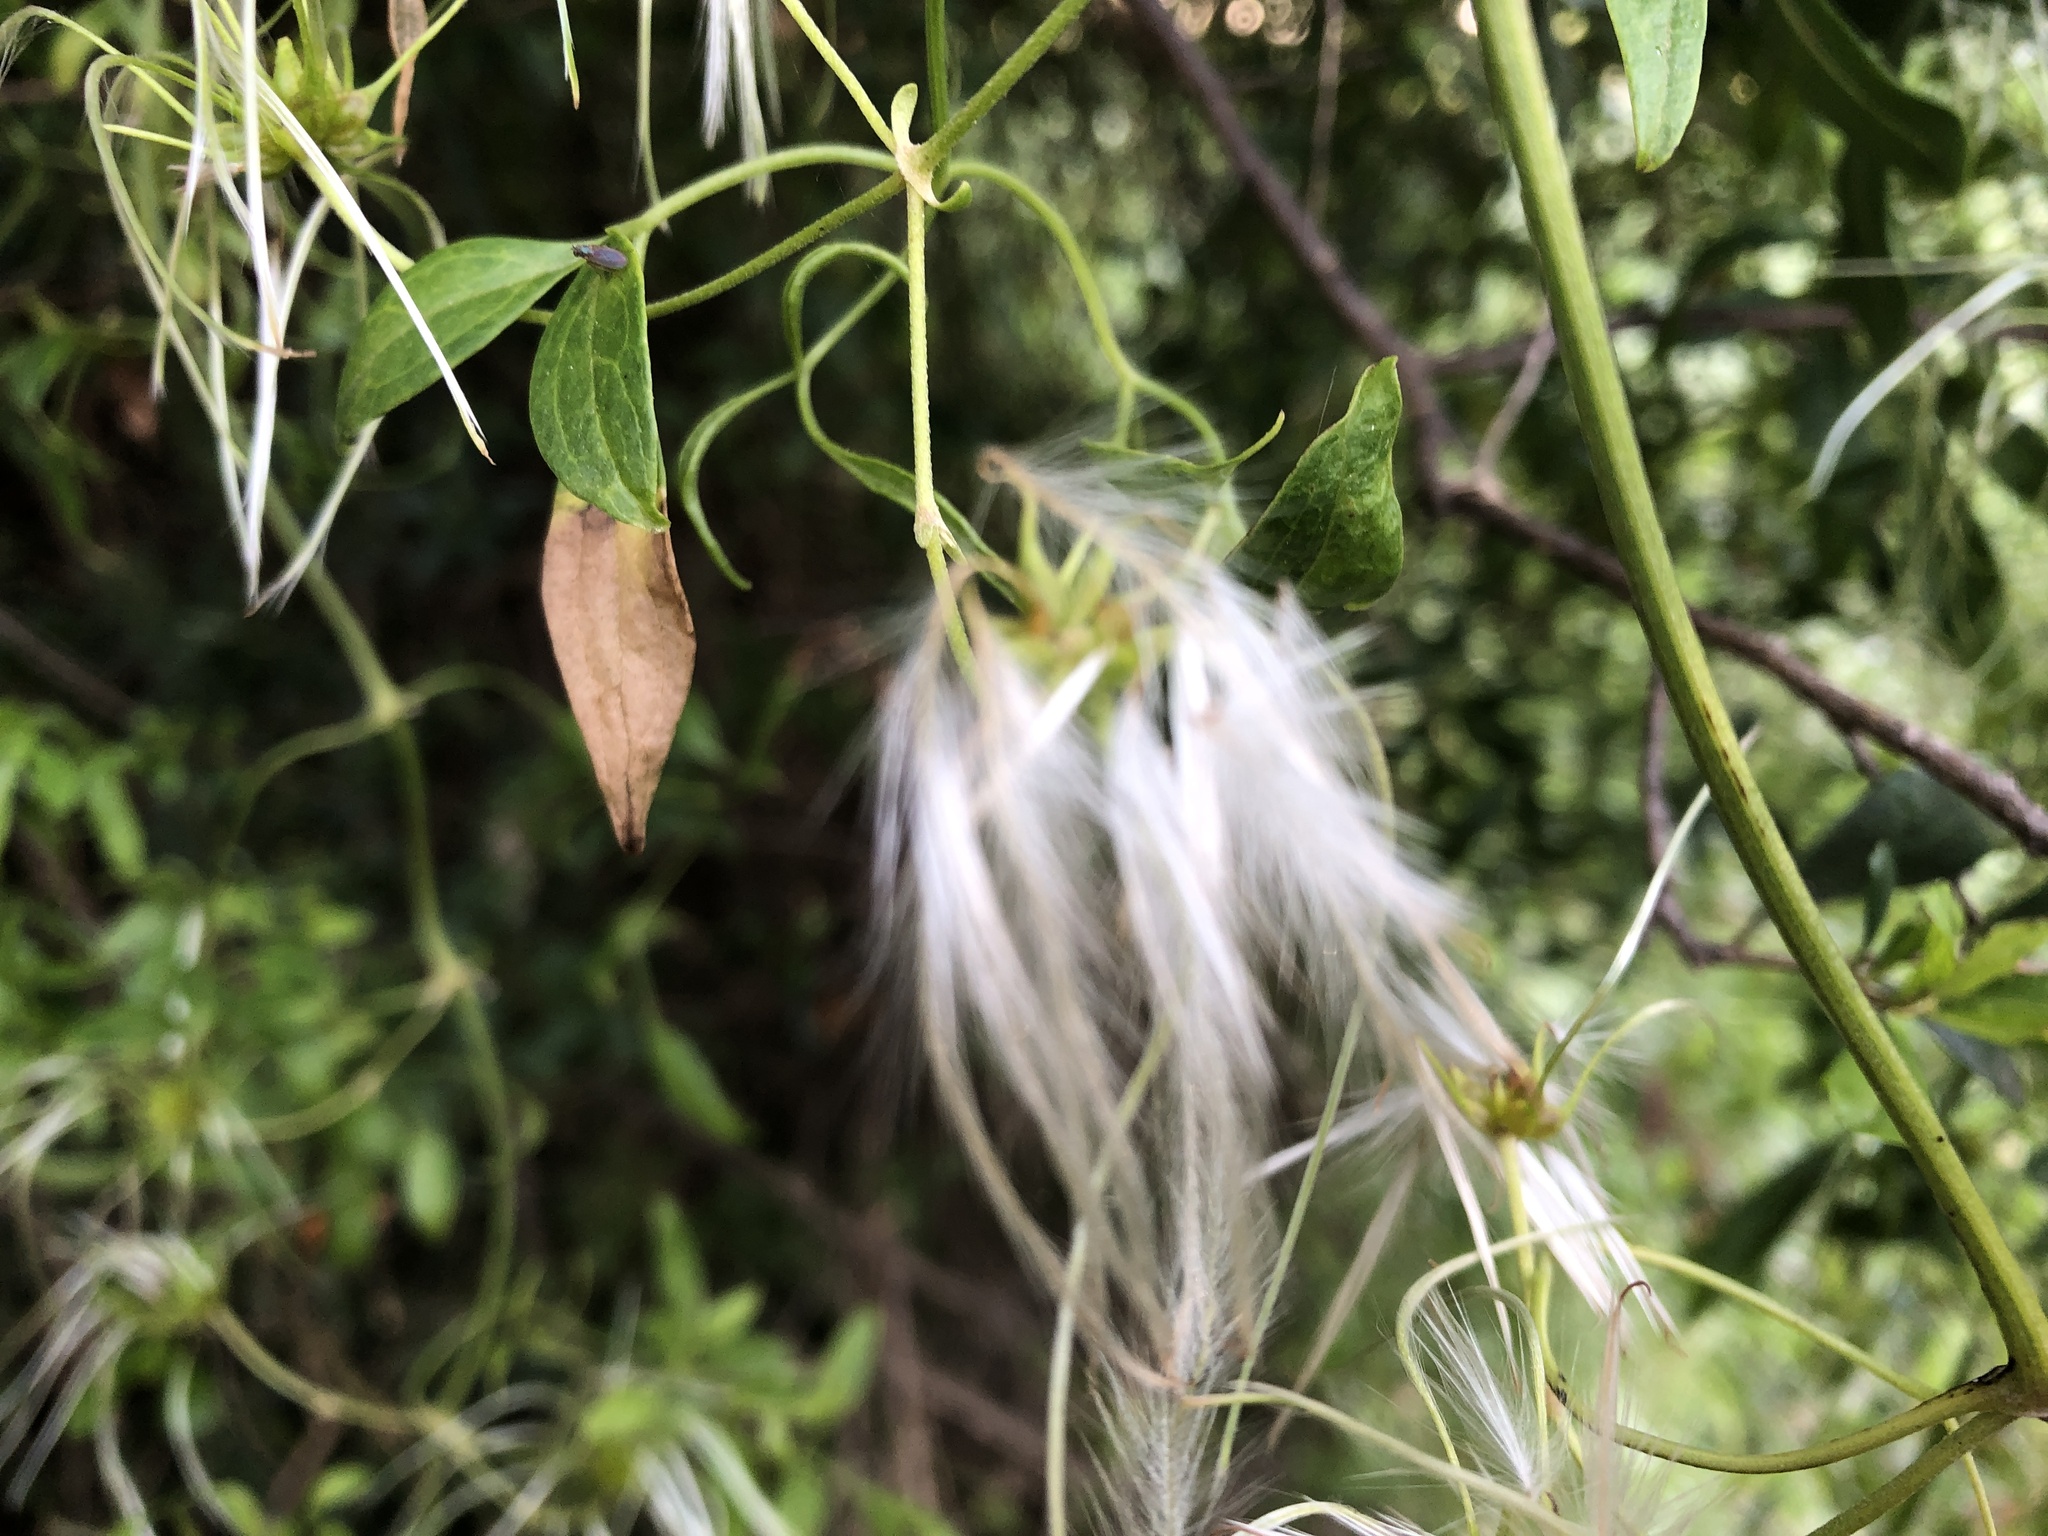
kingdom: Plantae
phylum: Tracheophyta
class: Magnoliopsida
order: Ranunculales
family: Ranunculaceae
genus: Clematis
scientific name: Clematis microphylla
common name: Headachevine
